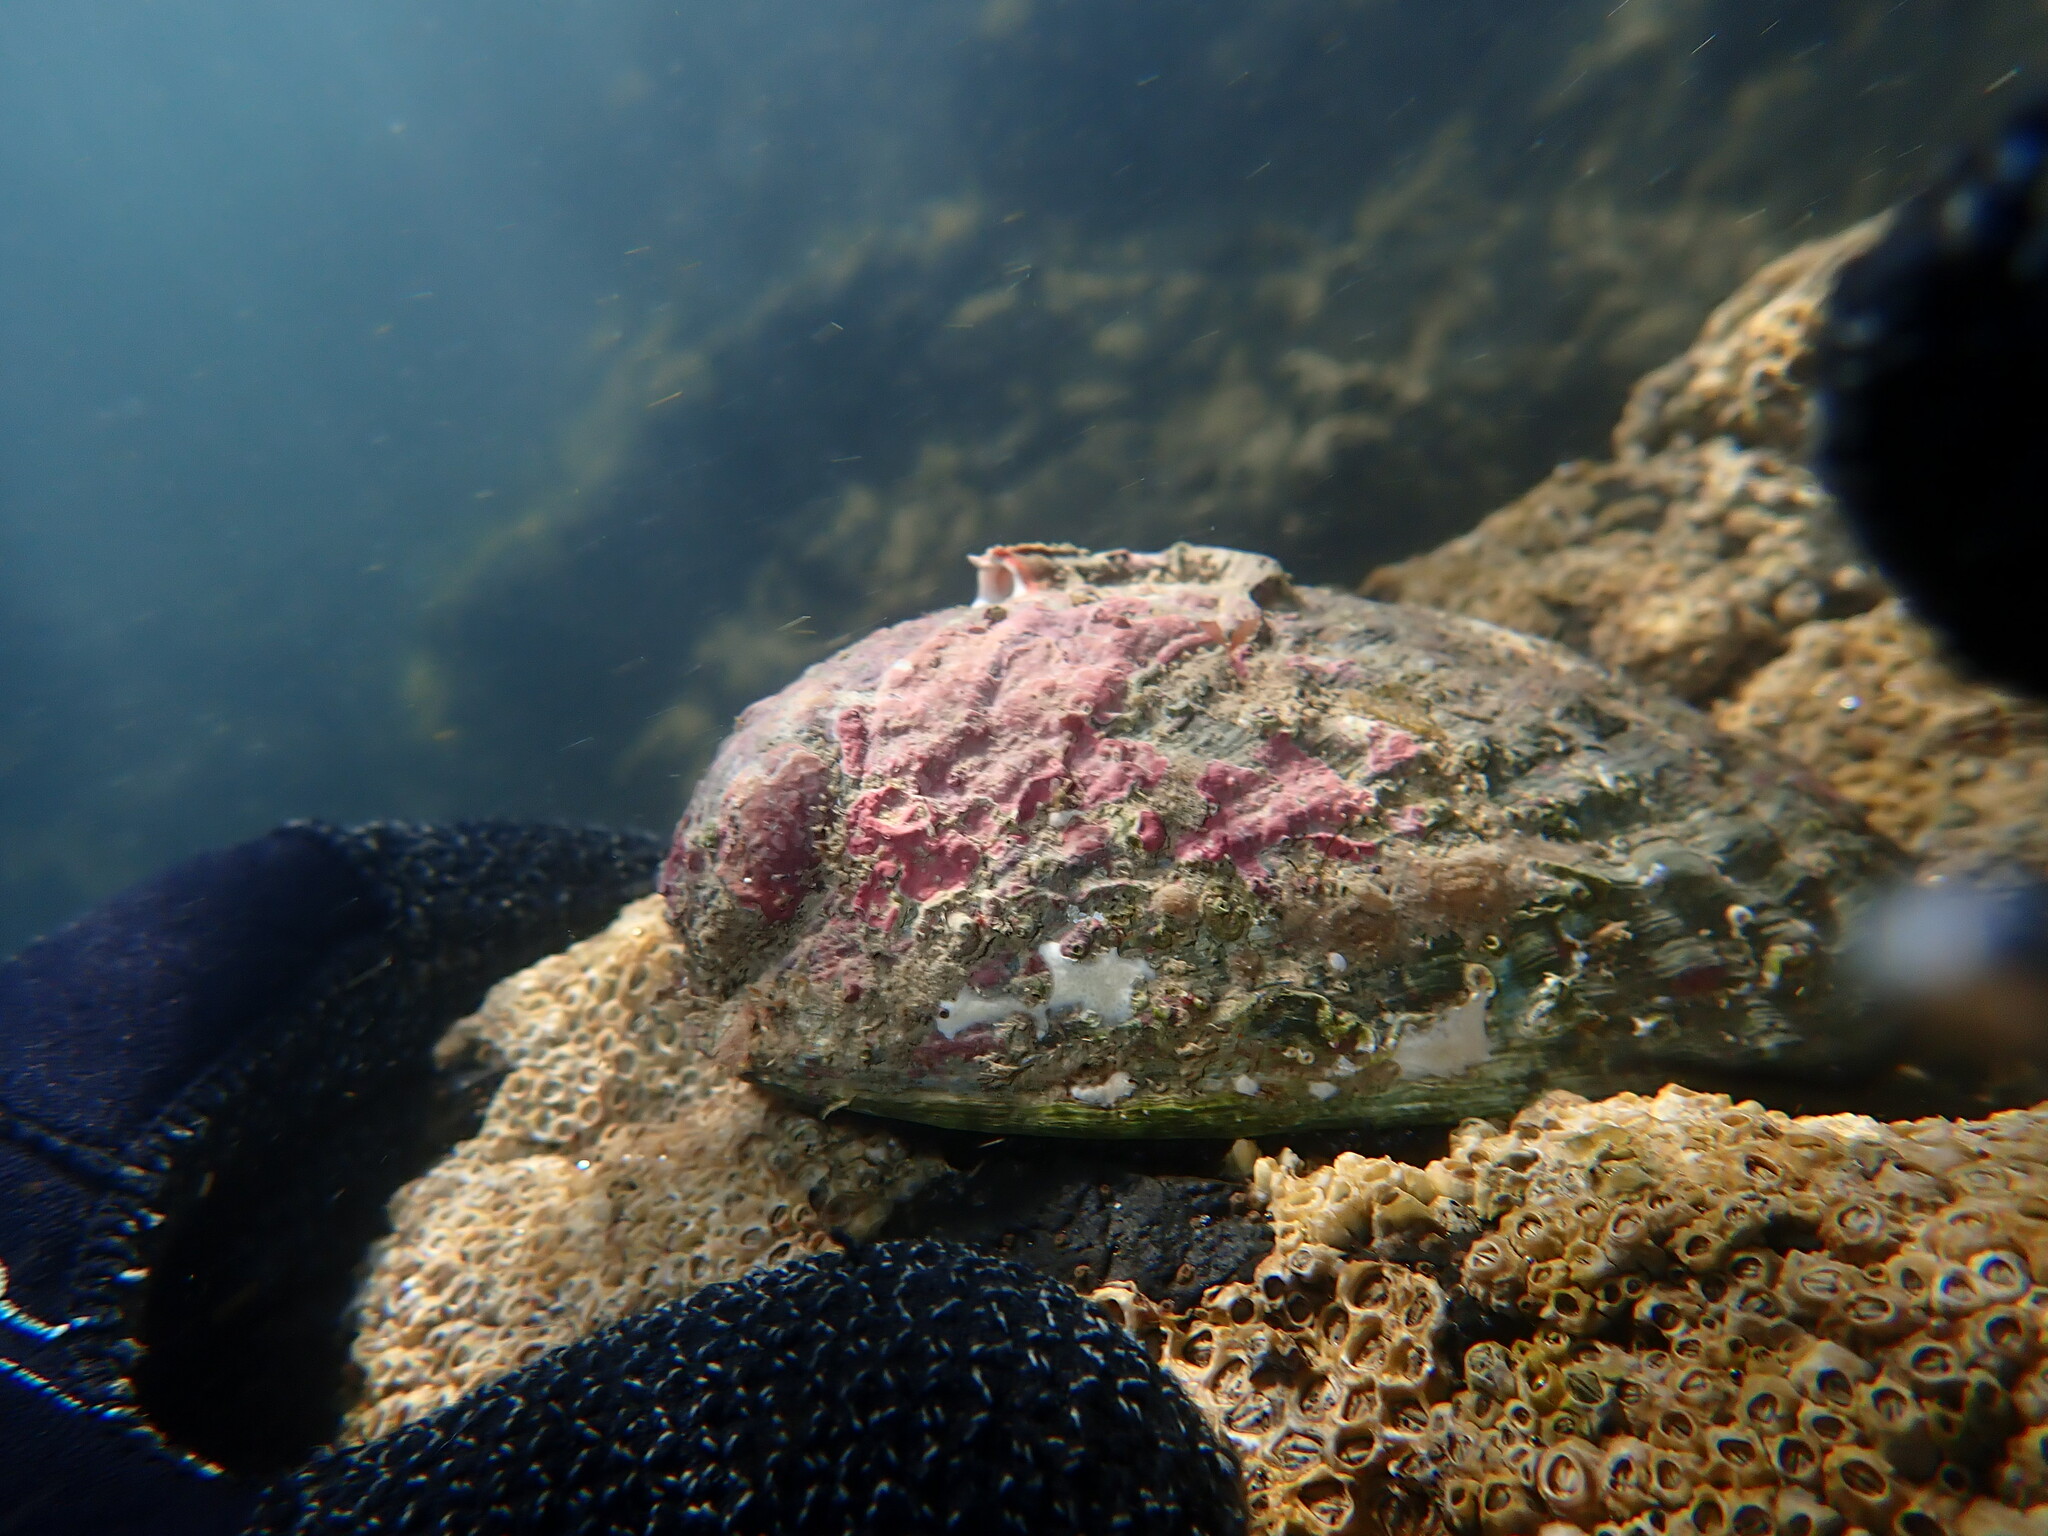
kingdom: Animalia
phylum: Mollusca
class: Gastropoda
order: Lepetellida
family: Haliotidae
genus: Haliotis
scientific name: Haliotis iris
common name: Abalone
